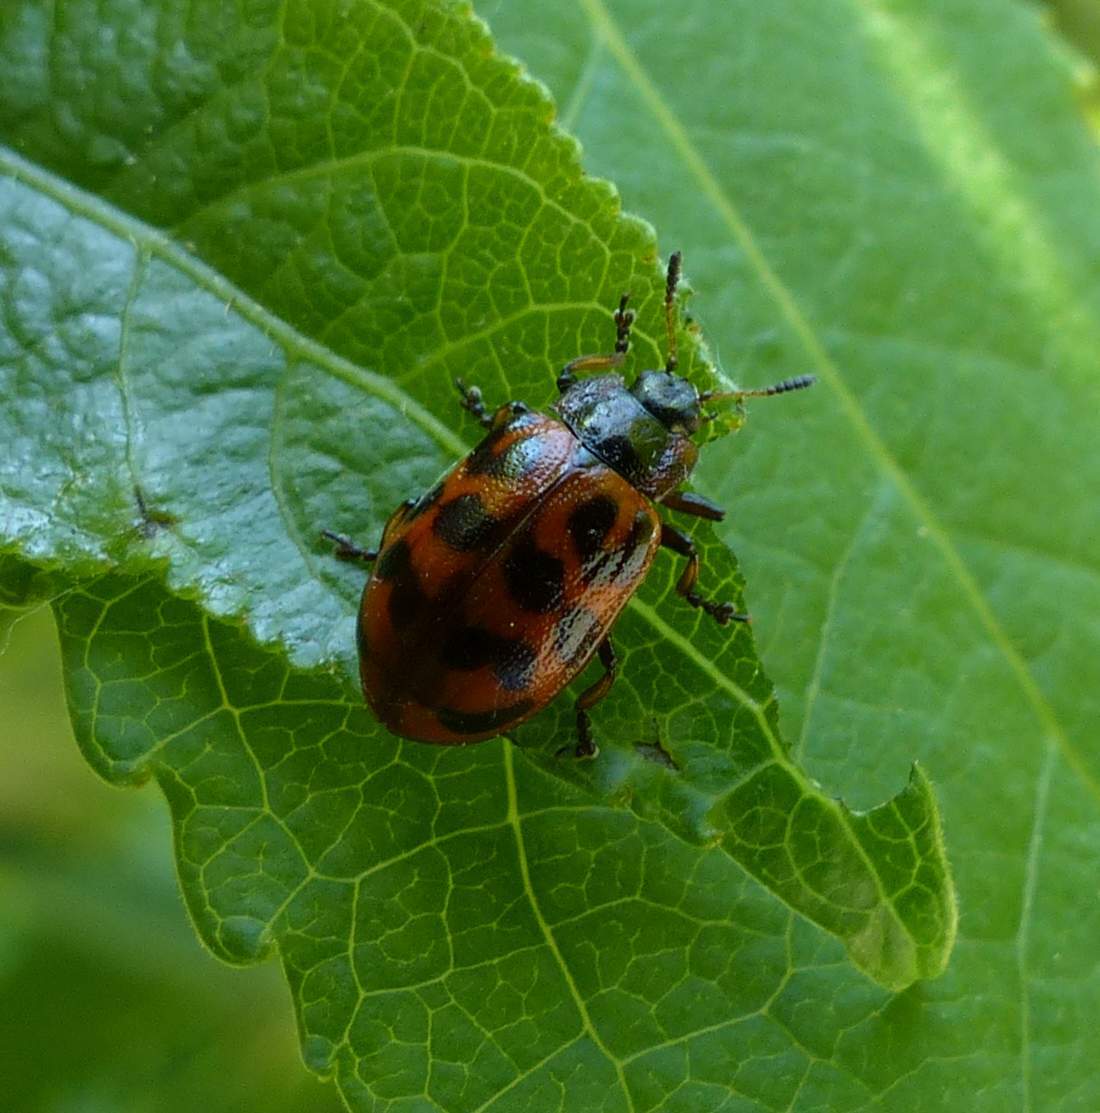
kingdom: Animalia
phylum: Arthropoda
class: Insecta
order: Coleoptera
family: Chrysomelidae
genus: Chrysomela
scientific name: Chrysomela mainensis
